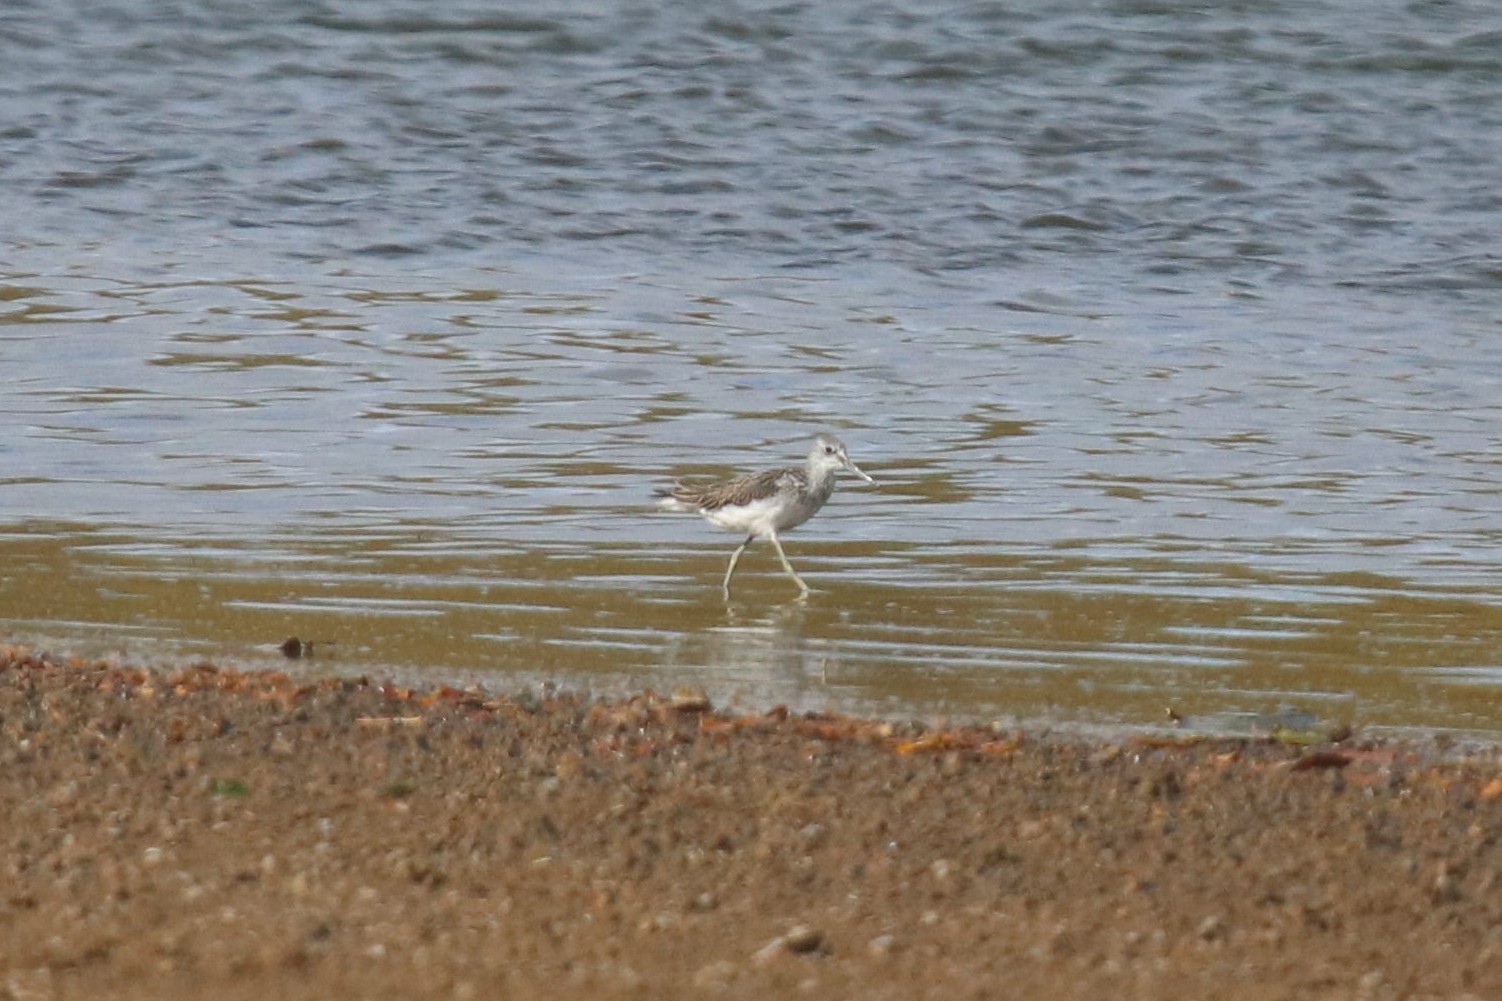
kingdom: Animalia
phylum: Chordata
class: Aves
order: Charadriiformes
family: Scolopacidae
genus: Tringa
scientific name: Tringa nebularia
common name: Common greenshank
